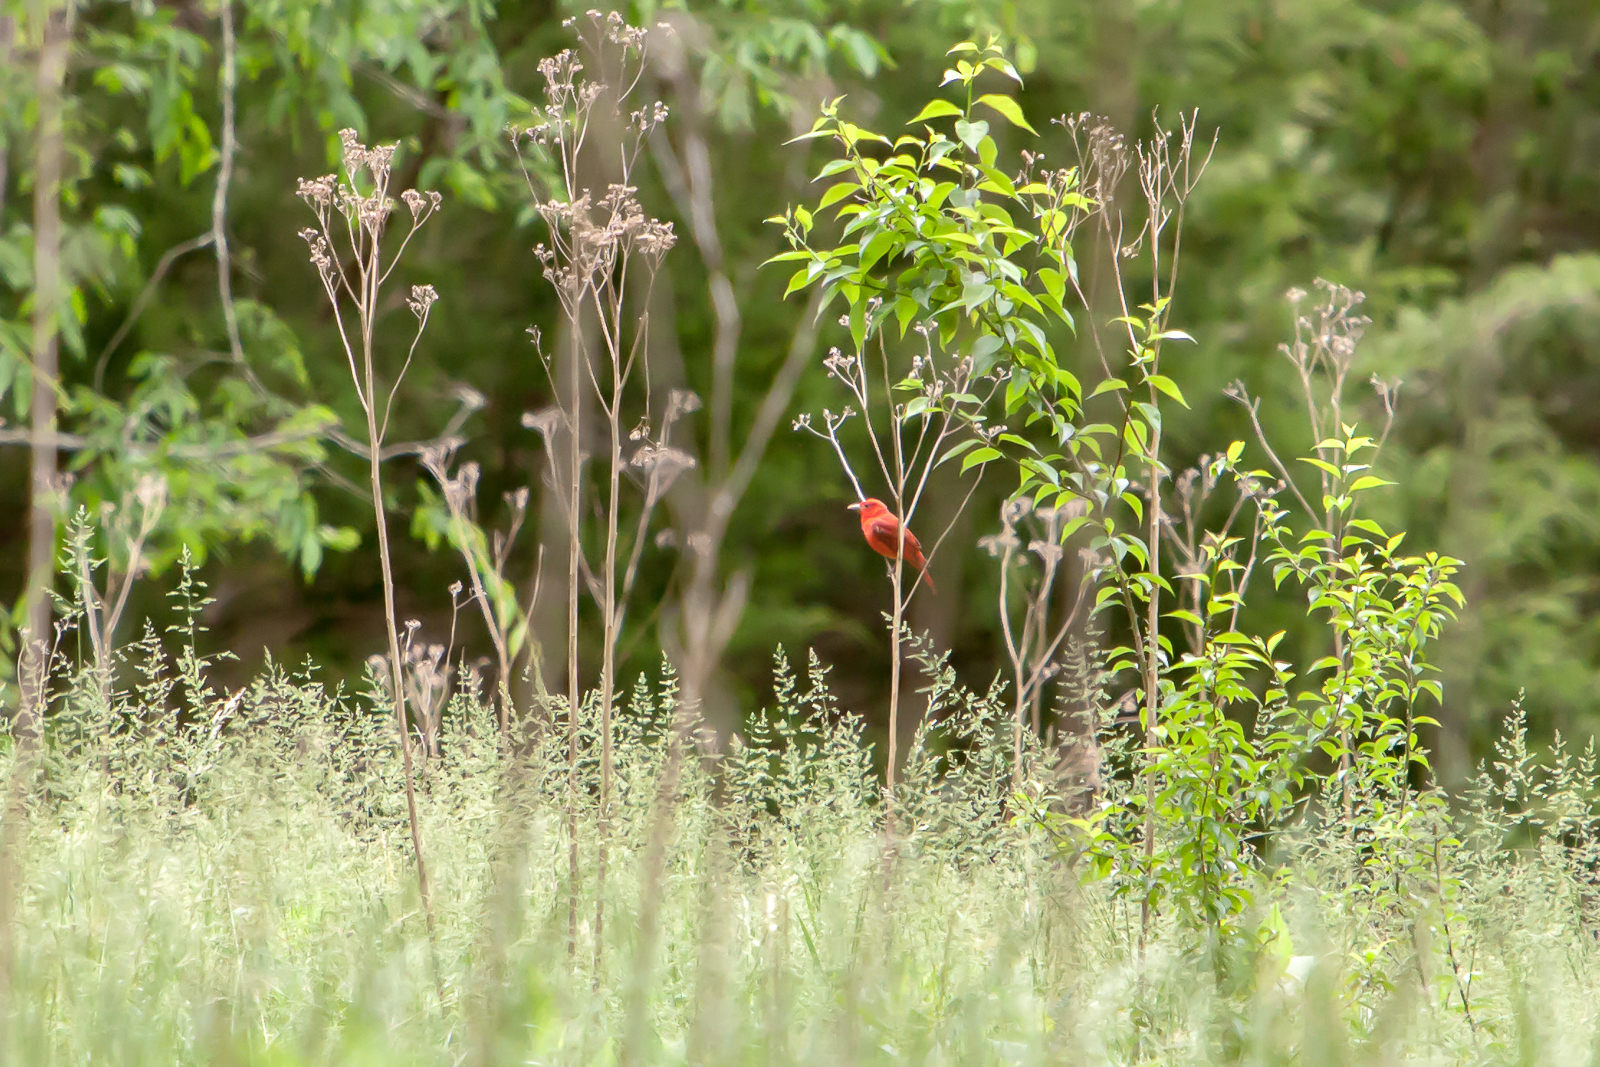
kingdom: Animalia
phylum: Chordata
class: Aves
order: Passeriformes
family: Cardinalidae
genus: Piranga
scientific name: Piranga rubra
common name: Summer tanager
